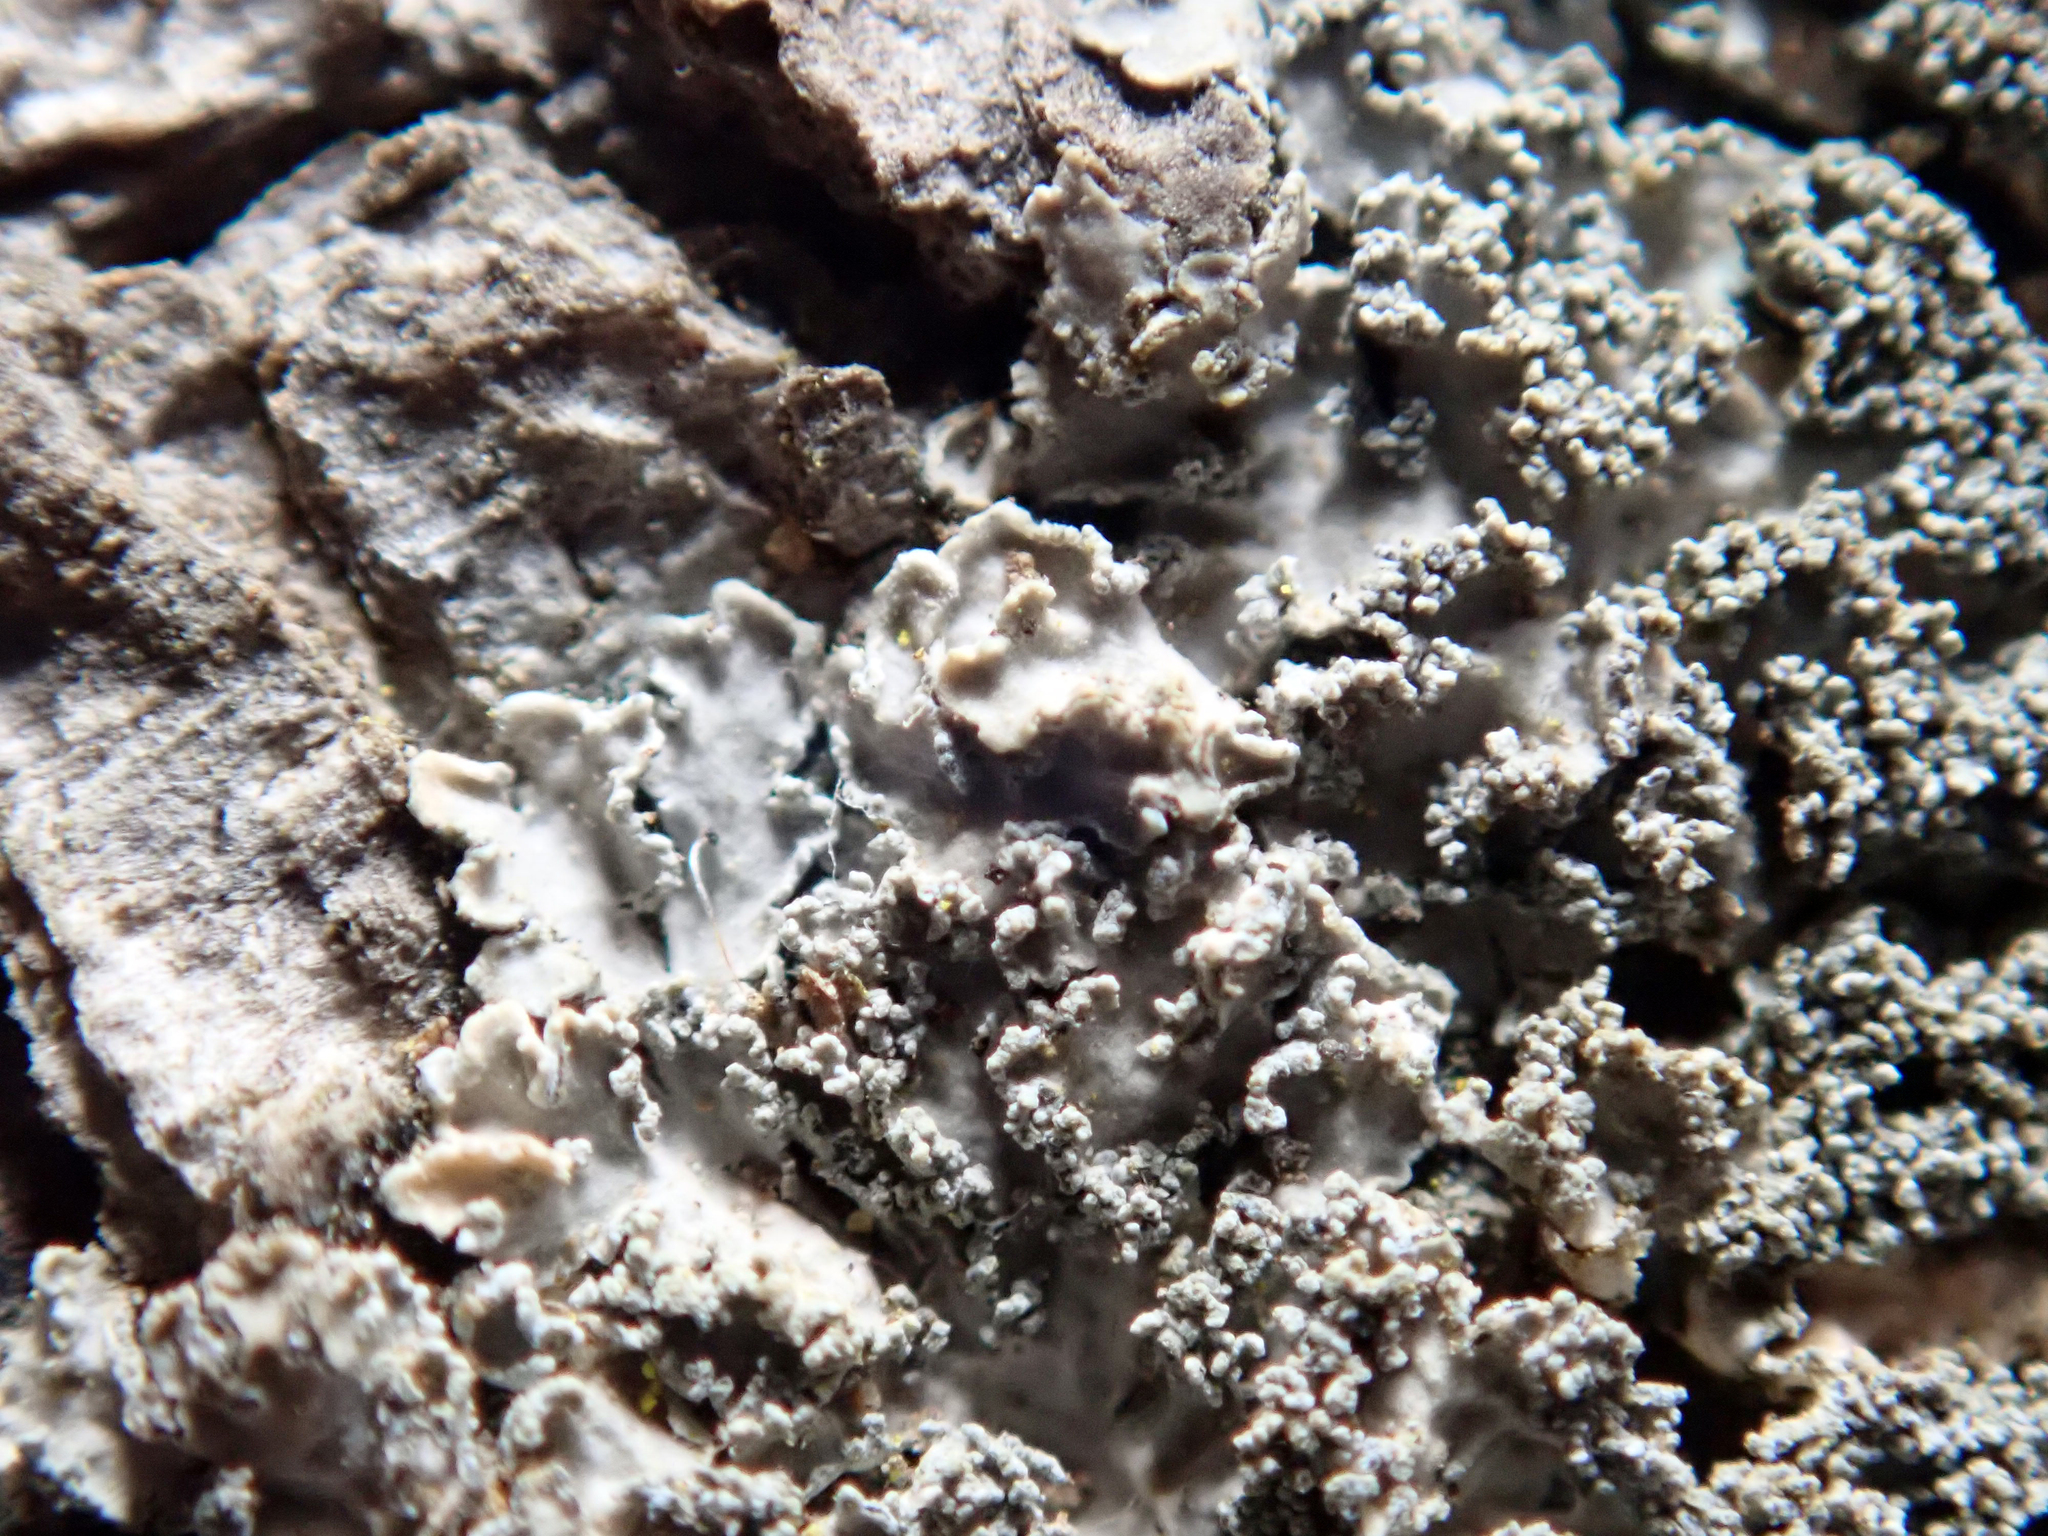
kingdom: Fungi
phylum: Ascomycota
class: Lecanoromycetes
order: Peltigerales
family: Pannariaceae
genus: Pannaria
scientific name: Pannaria elixii
